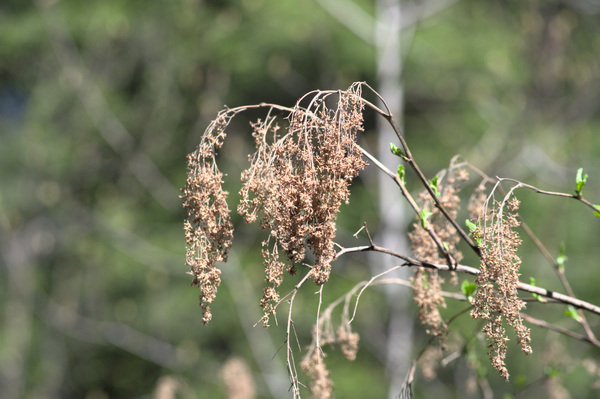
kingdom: Plantae
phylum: Tracheophyta
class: Magnoliopsida
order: Rosales
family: Rosaceae
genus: Holodiscus
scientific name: Holodiscus discolor
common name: Oceanspray
